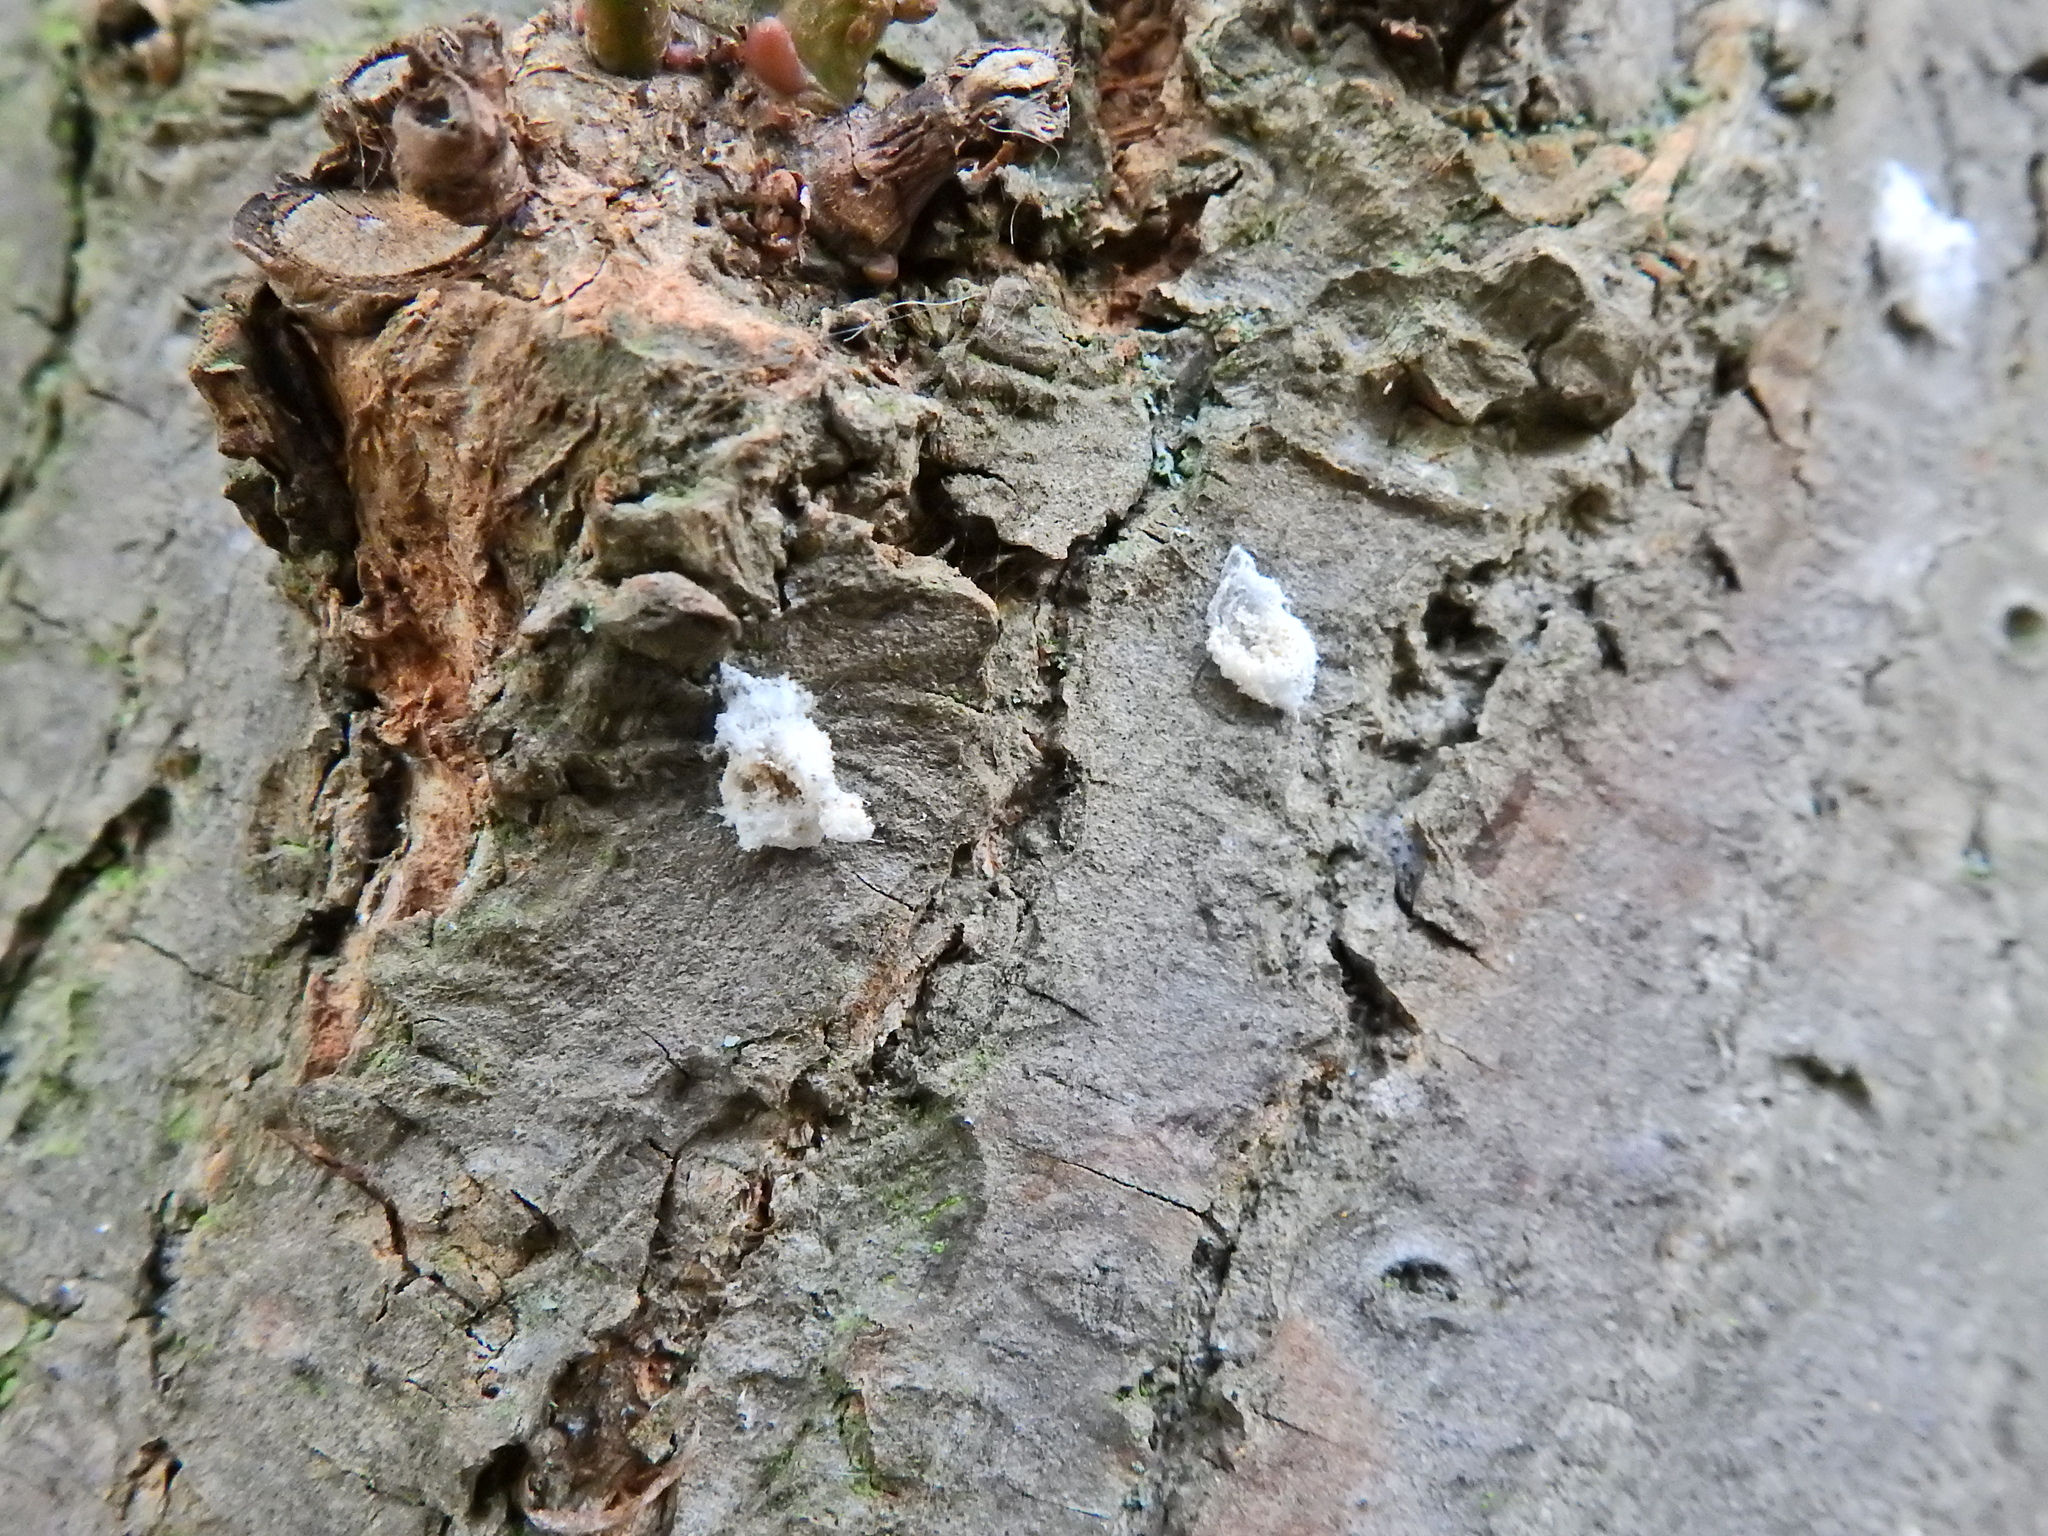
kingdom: Animalia
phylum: Arthropoda
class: Insecta
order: Hemiptera
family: Coccidae
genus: Pulvinaria
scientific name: Pulvinaria regalis
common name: Horse chestnut scale
